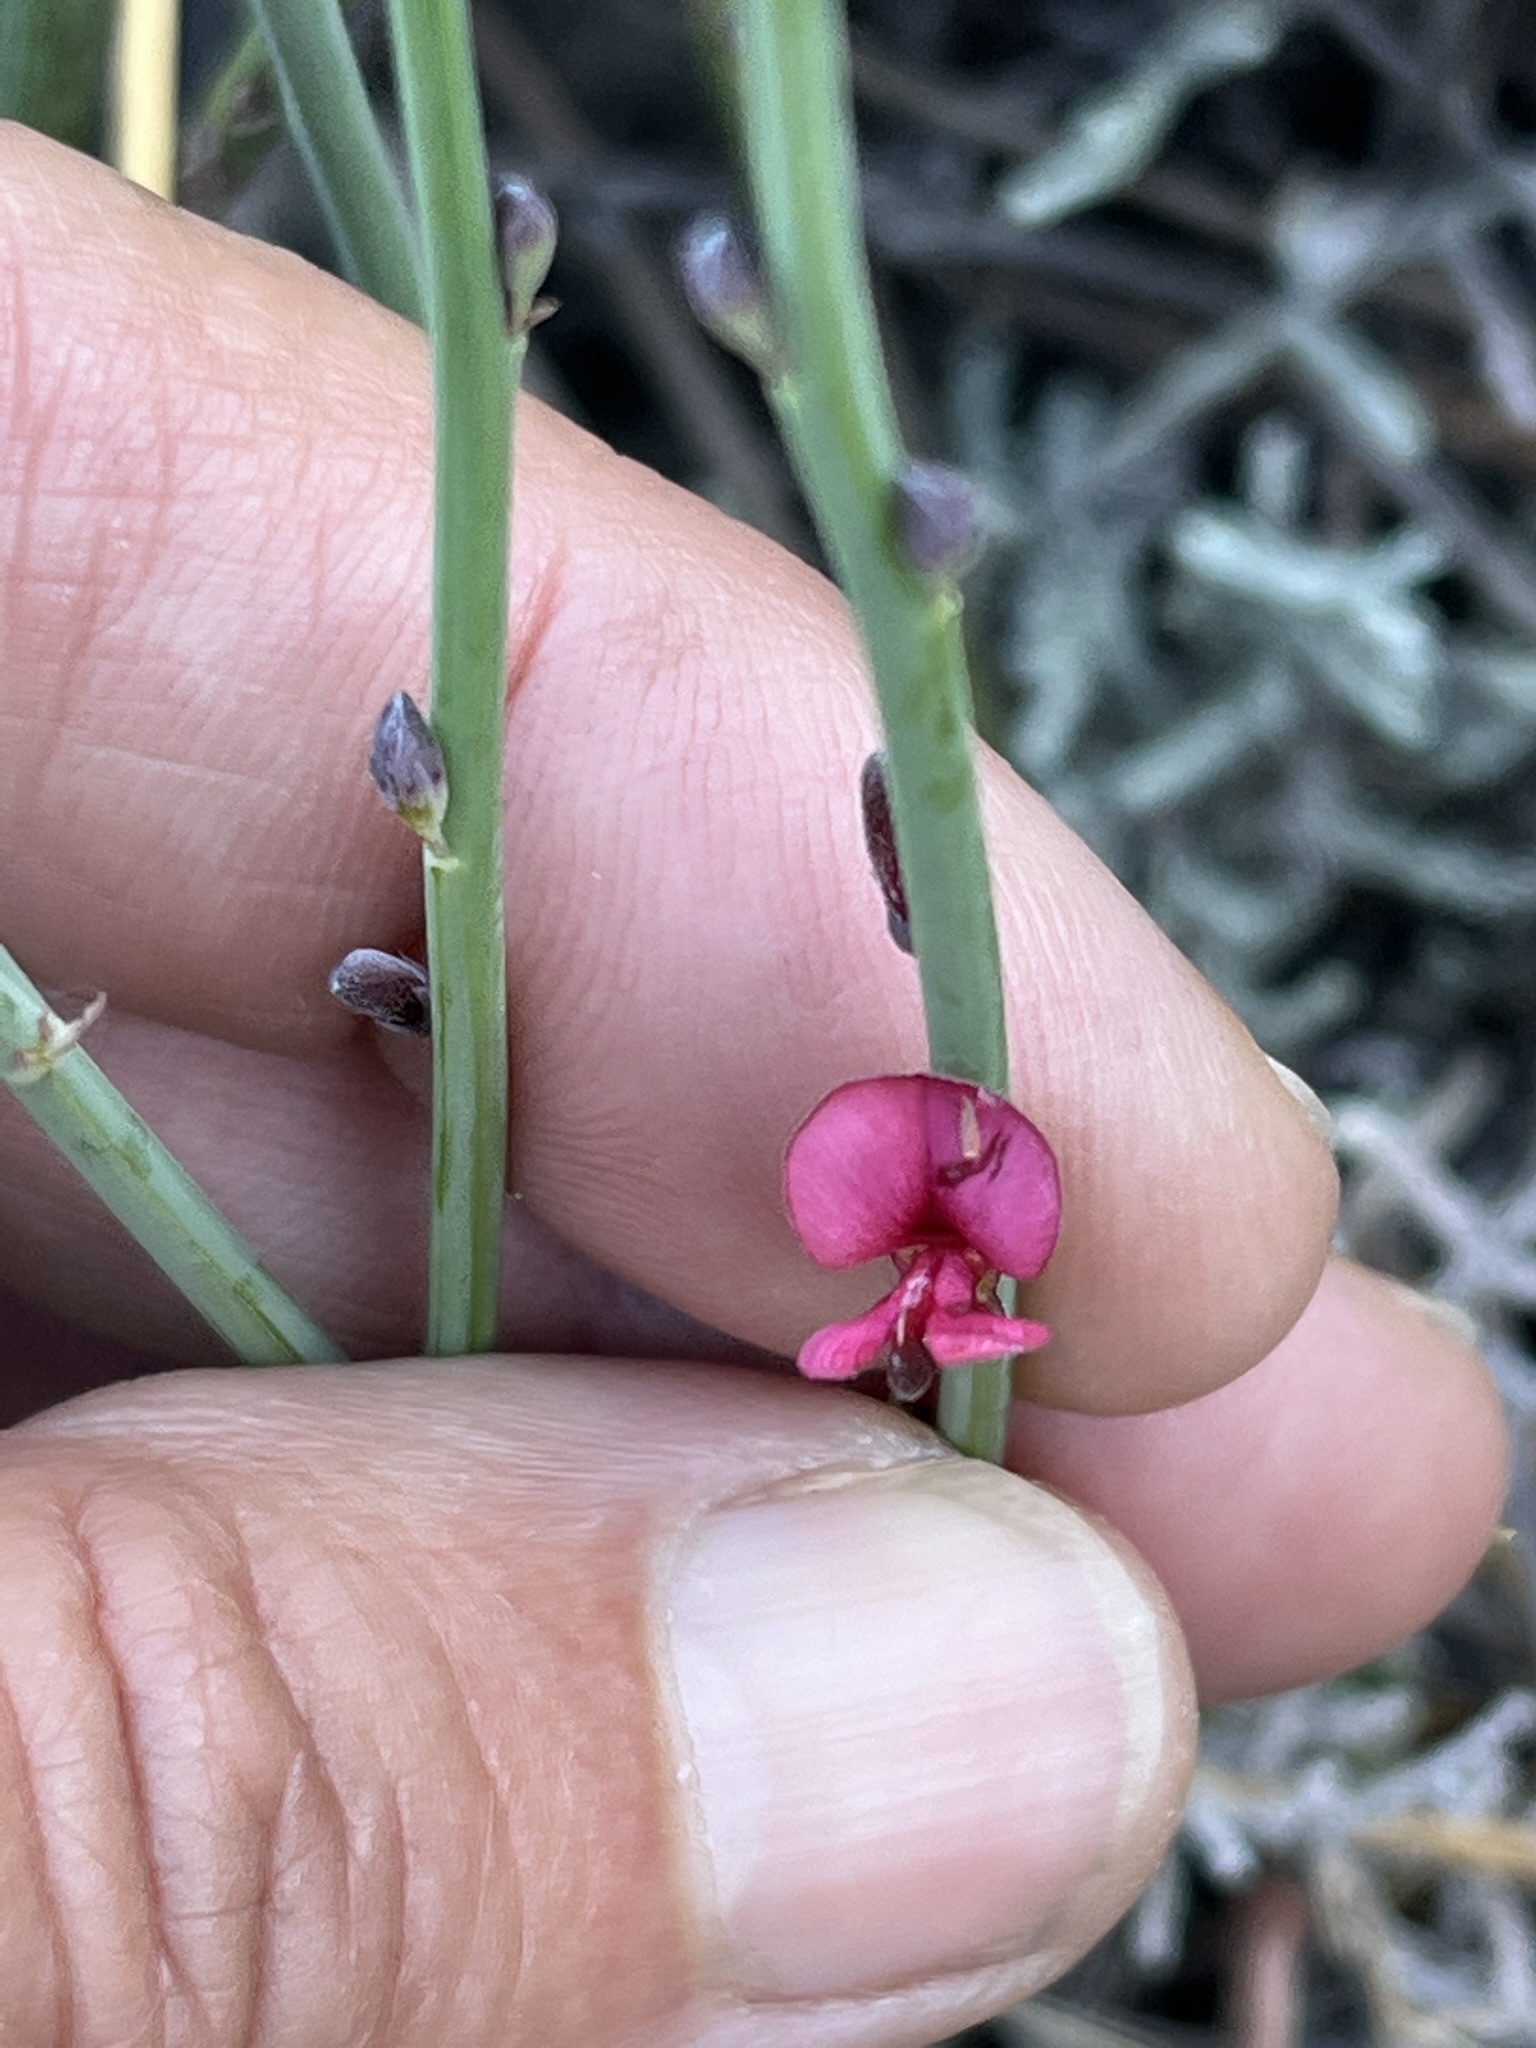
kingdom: Plantae
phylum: Tracheophyta
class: Magnoliopsida
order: Fabales
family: Fabaceae
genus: Indigofera
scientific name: Indigofera gifbergensis
